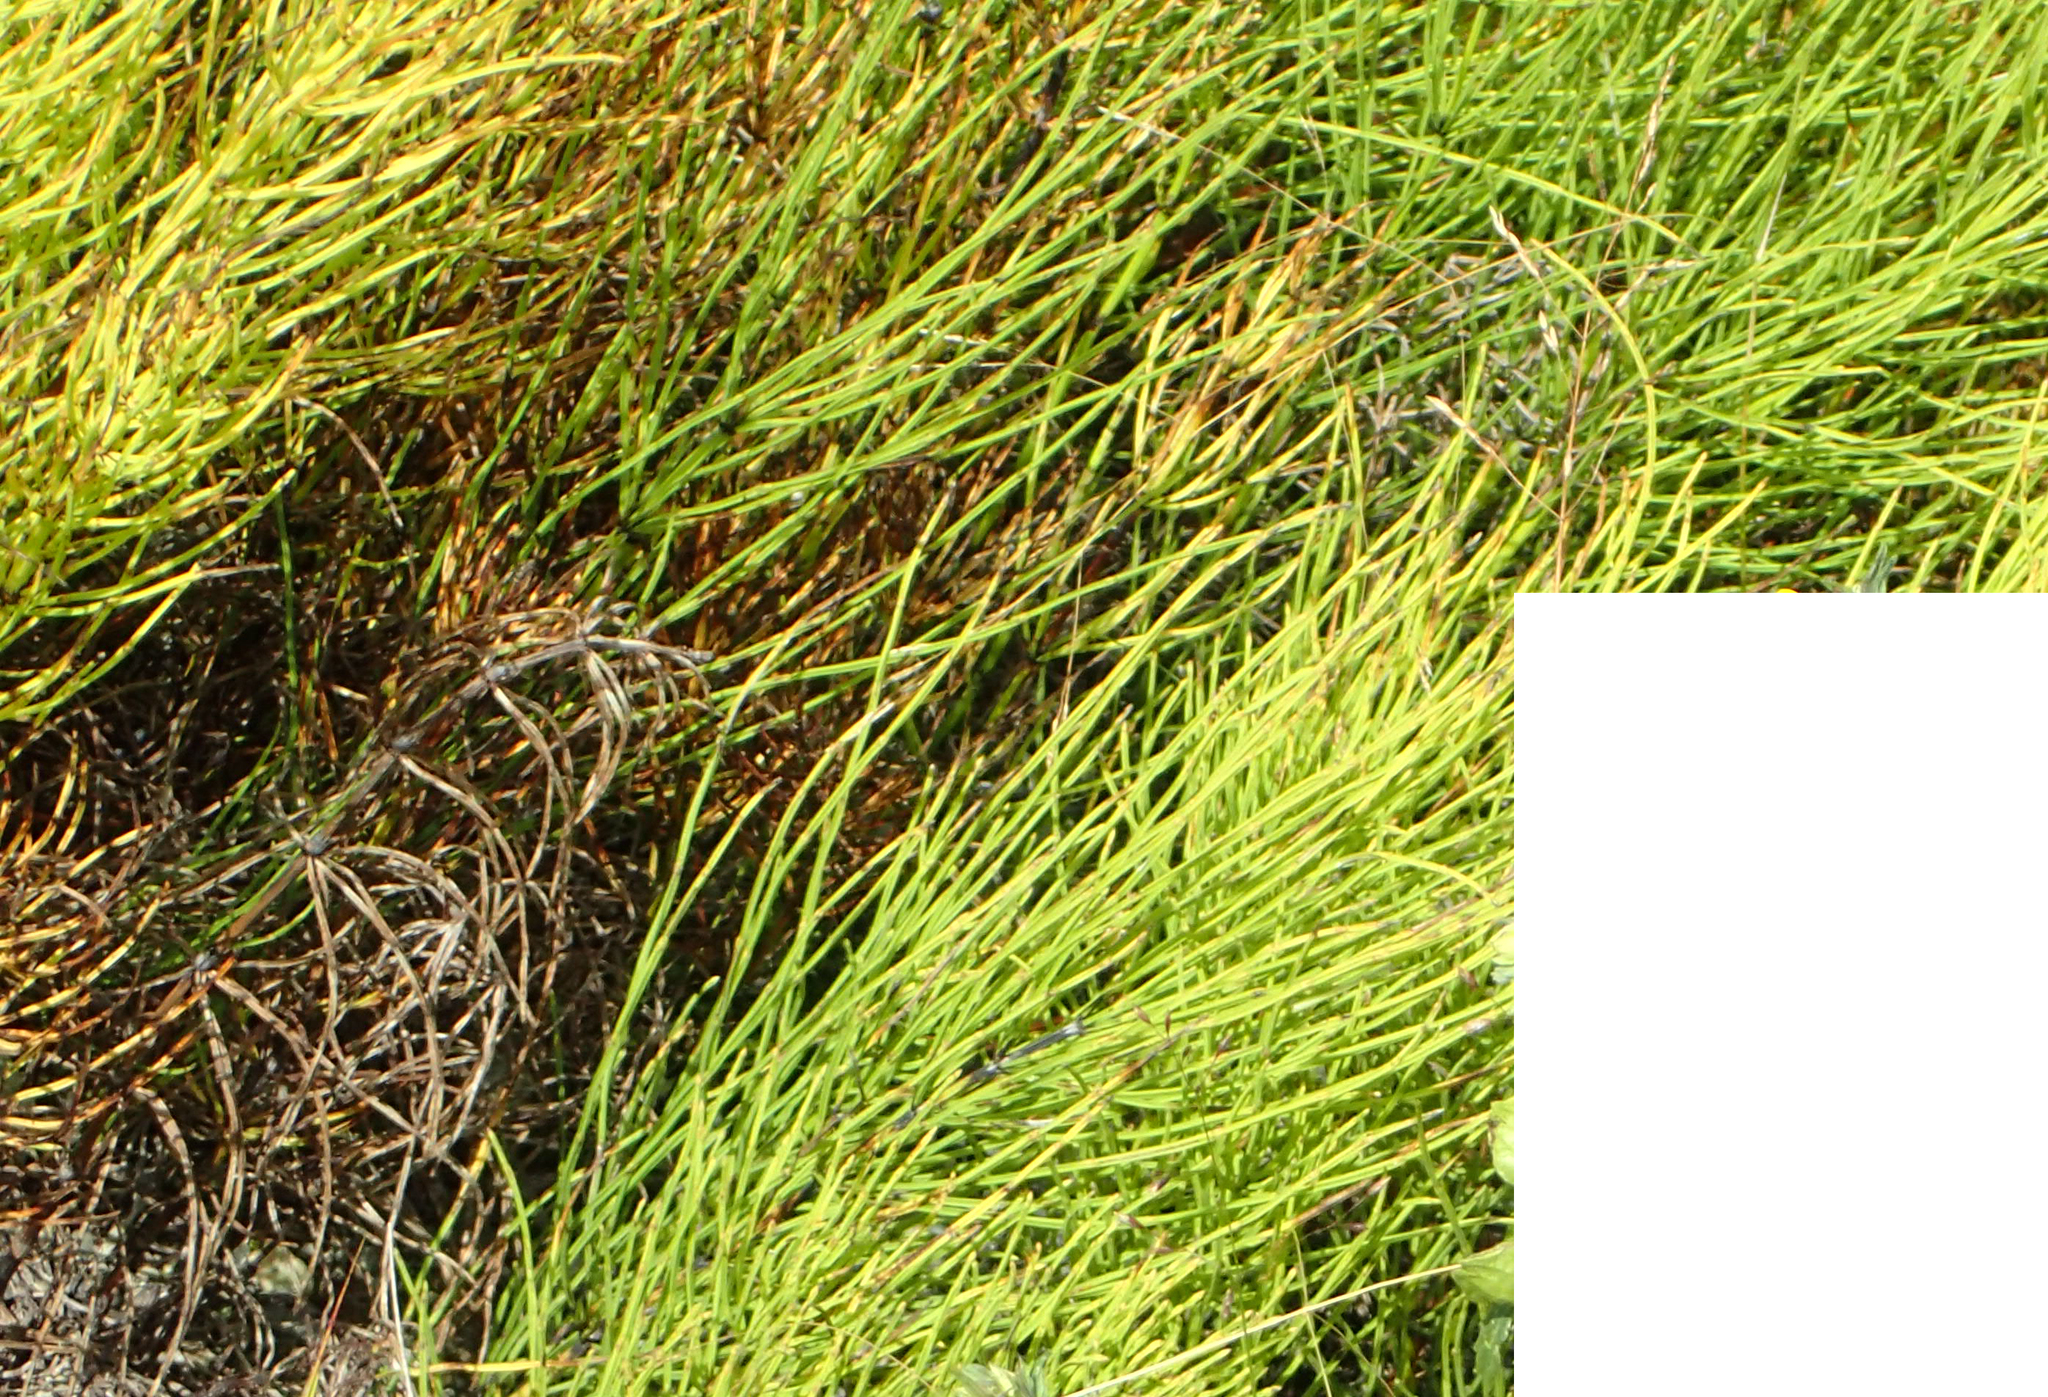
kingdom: Plantae
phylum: Tracheophyta
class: Polypodiopsida
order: Equisetales
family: Equisetaceae
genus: Equisetum
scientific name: Equisetum arvense
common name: Field horsetail
